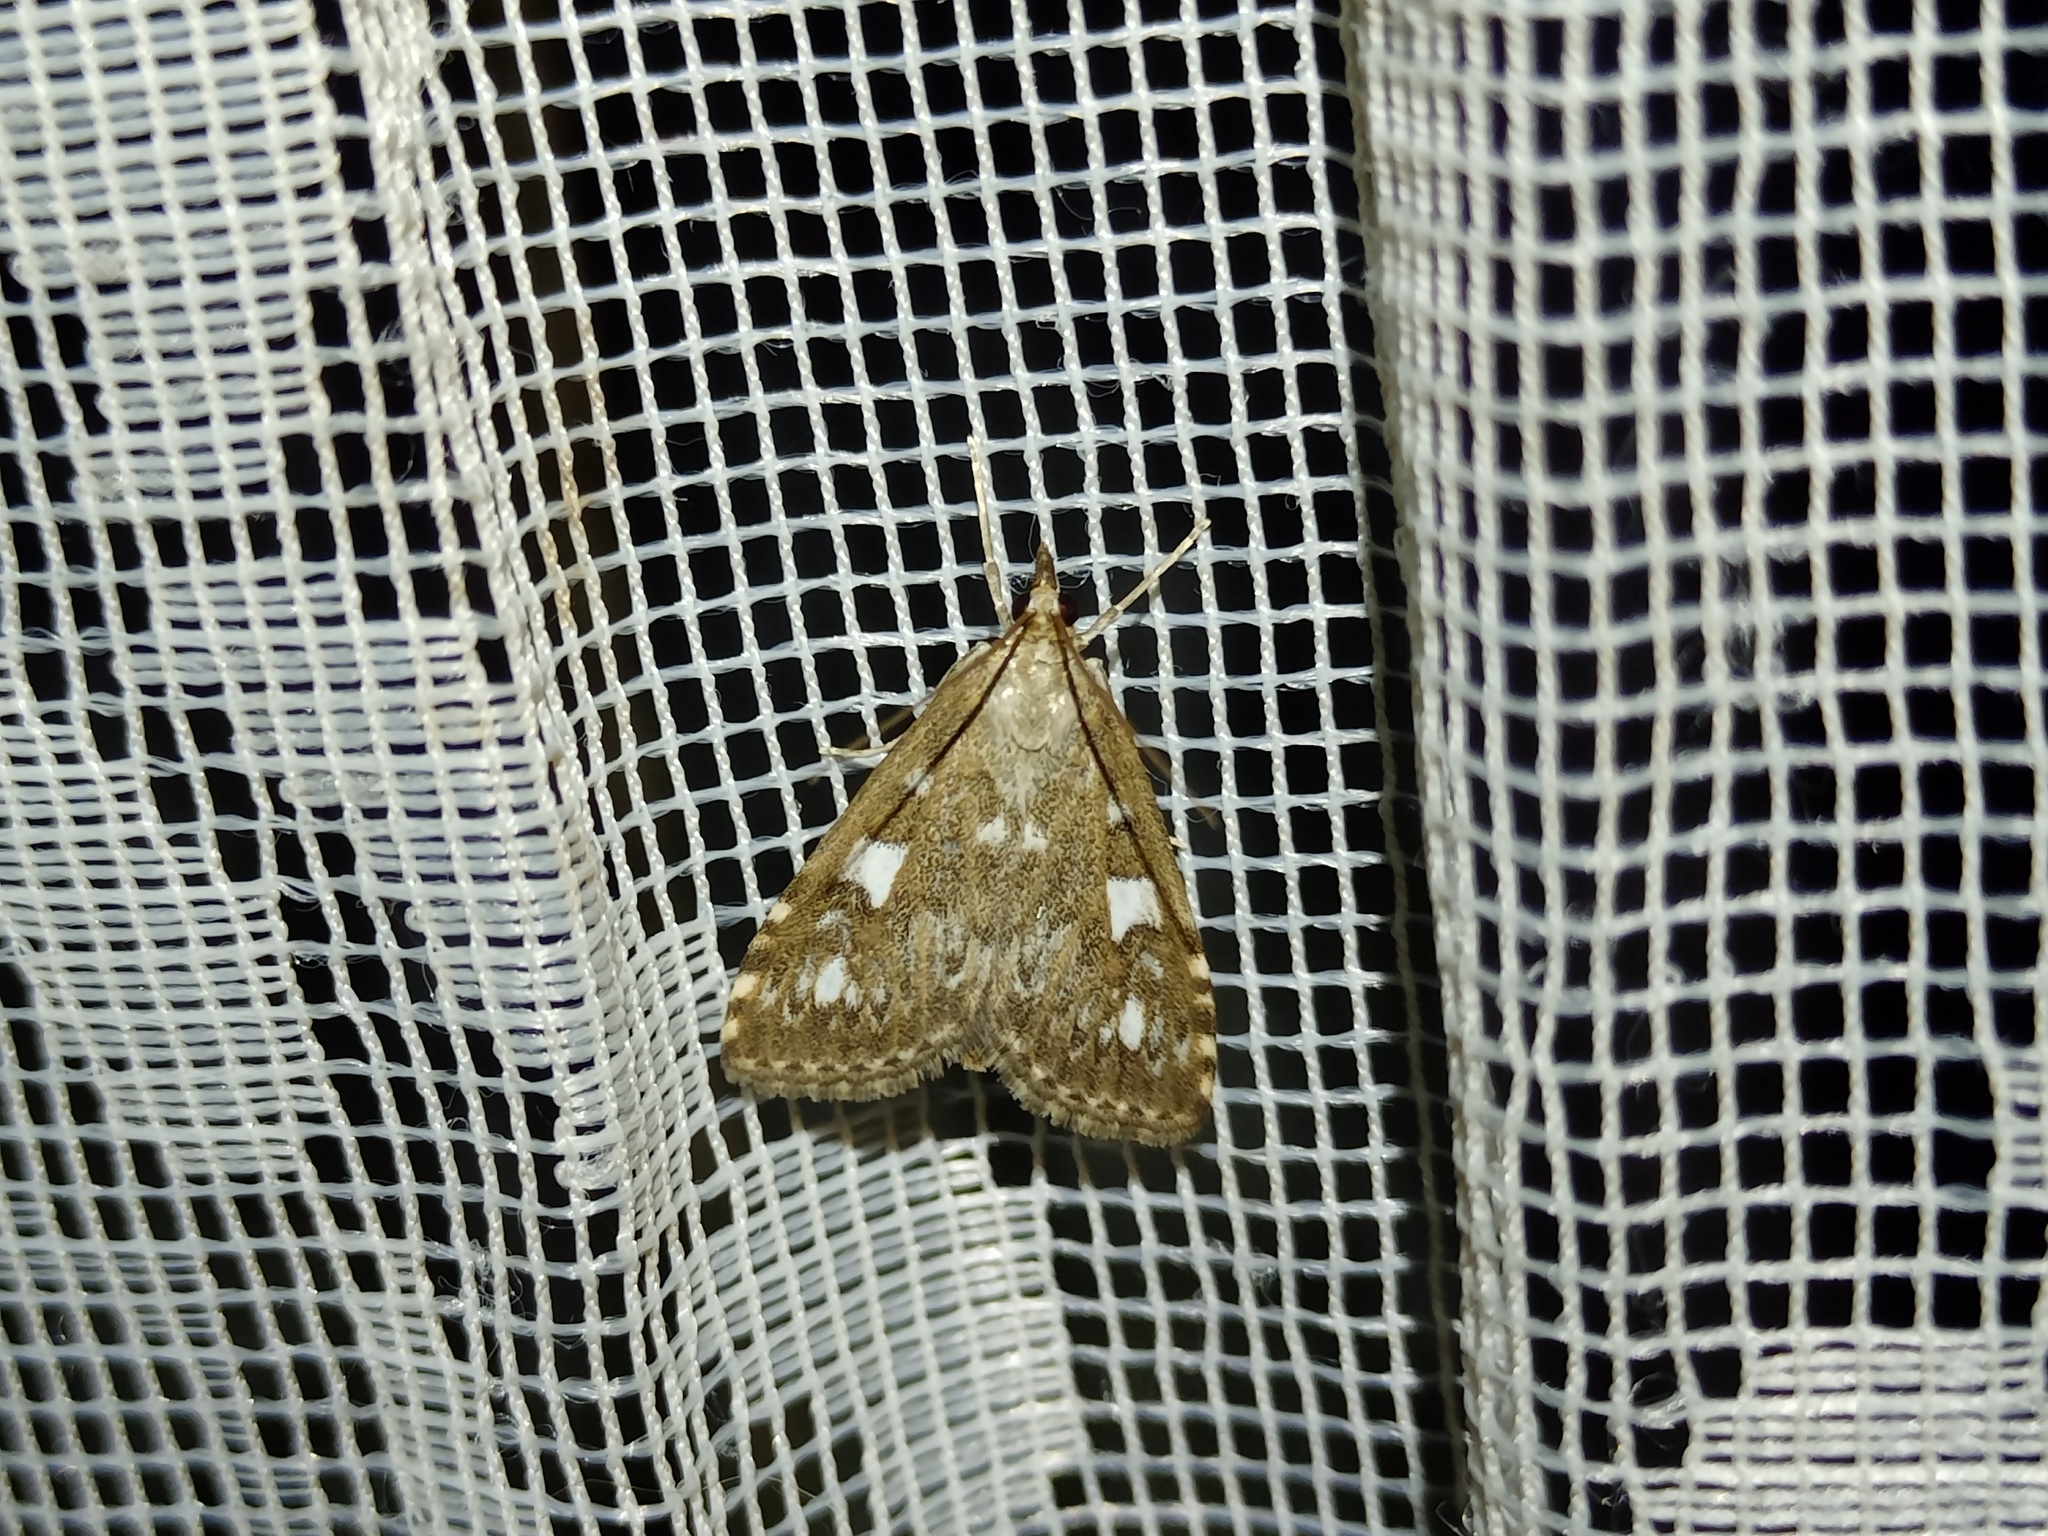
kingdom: Animalia
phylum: Arthropoda
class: Insecta
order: Lepidoptera
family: Crambidae
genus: Udea
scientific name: Udea olivalis
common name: Olive pearl
